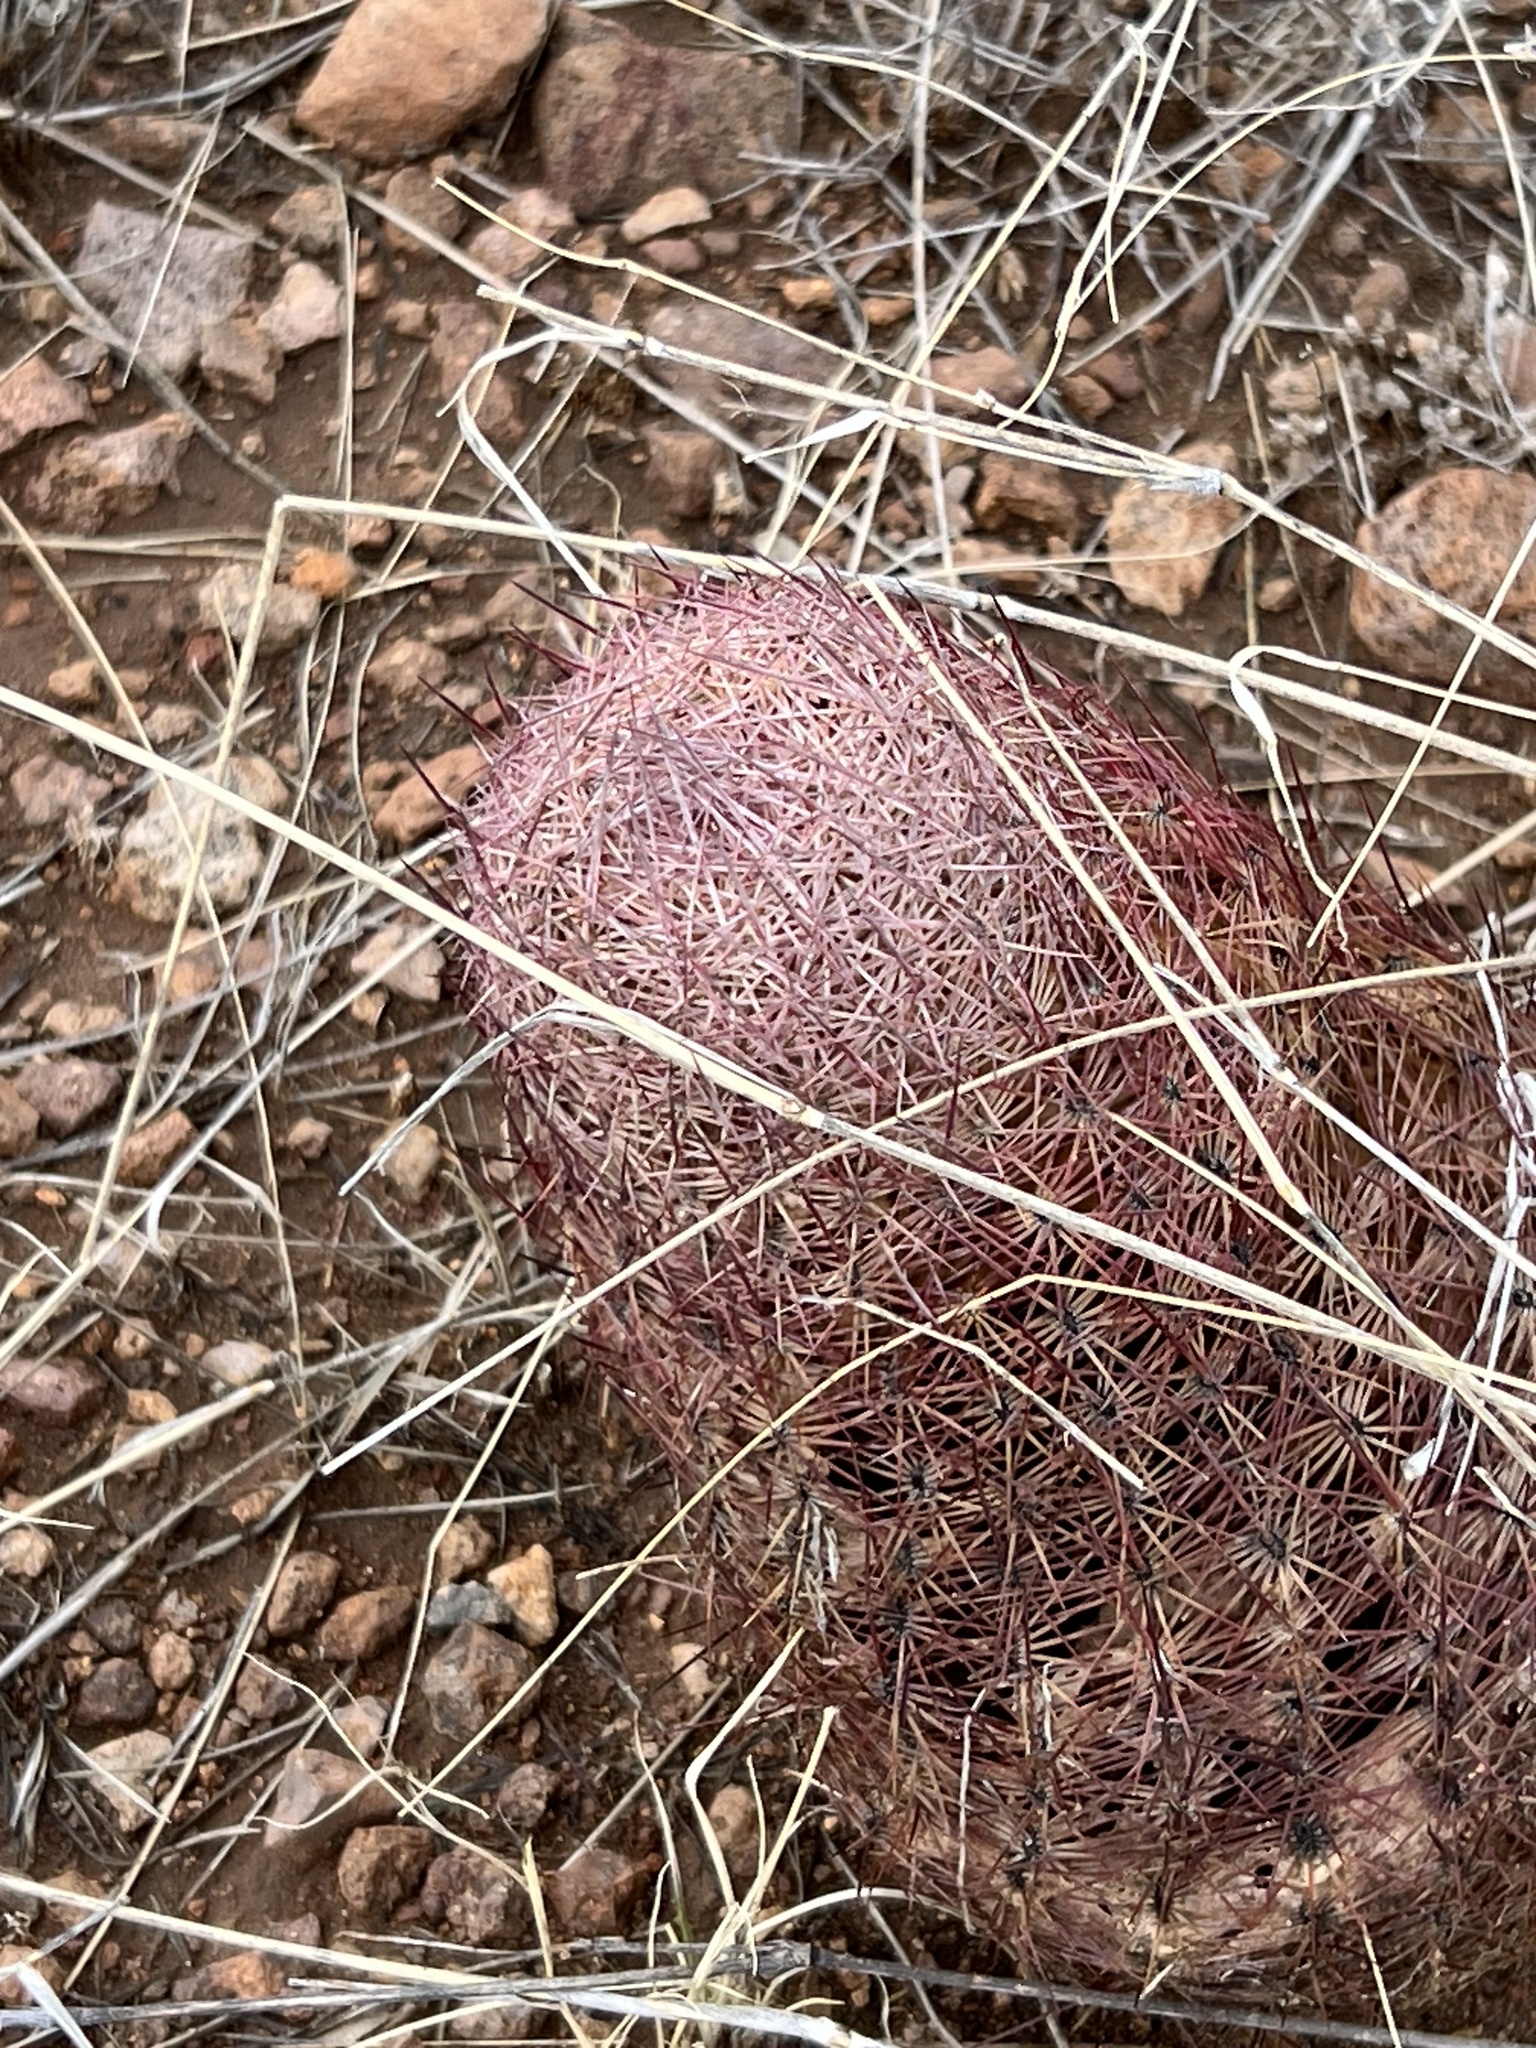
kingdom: Plantae
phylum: Tracheophyta
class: Magnoliopsida
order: Caryophyllales
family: Cactaceae
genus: Sclerocactus
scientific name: Sclerocactus johnsonii
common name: Eight-spine fishhook cactus
